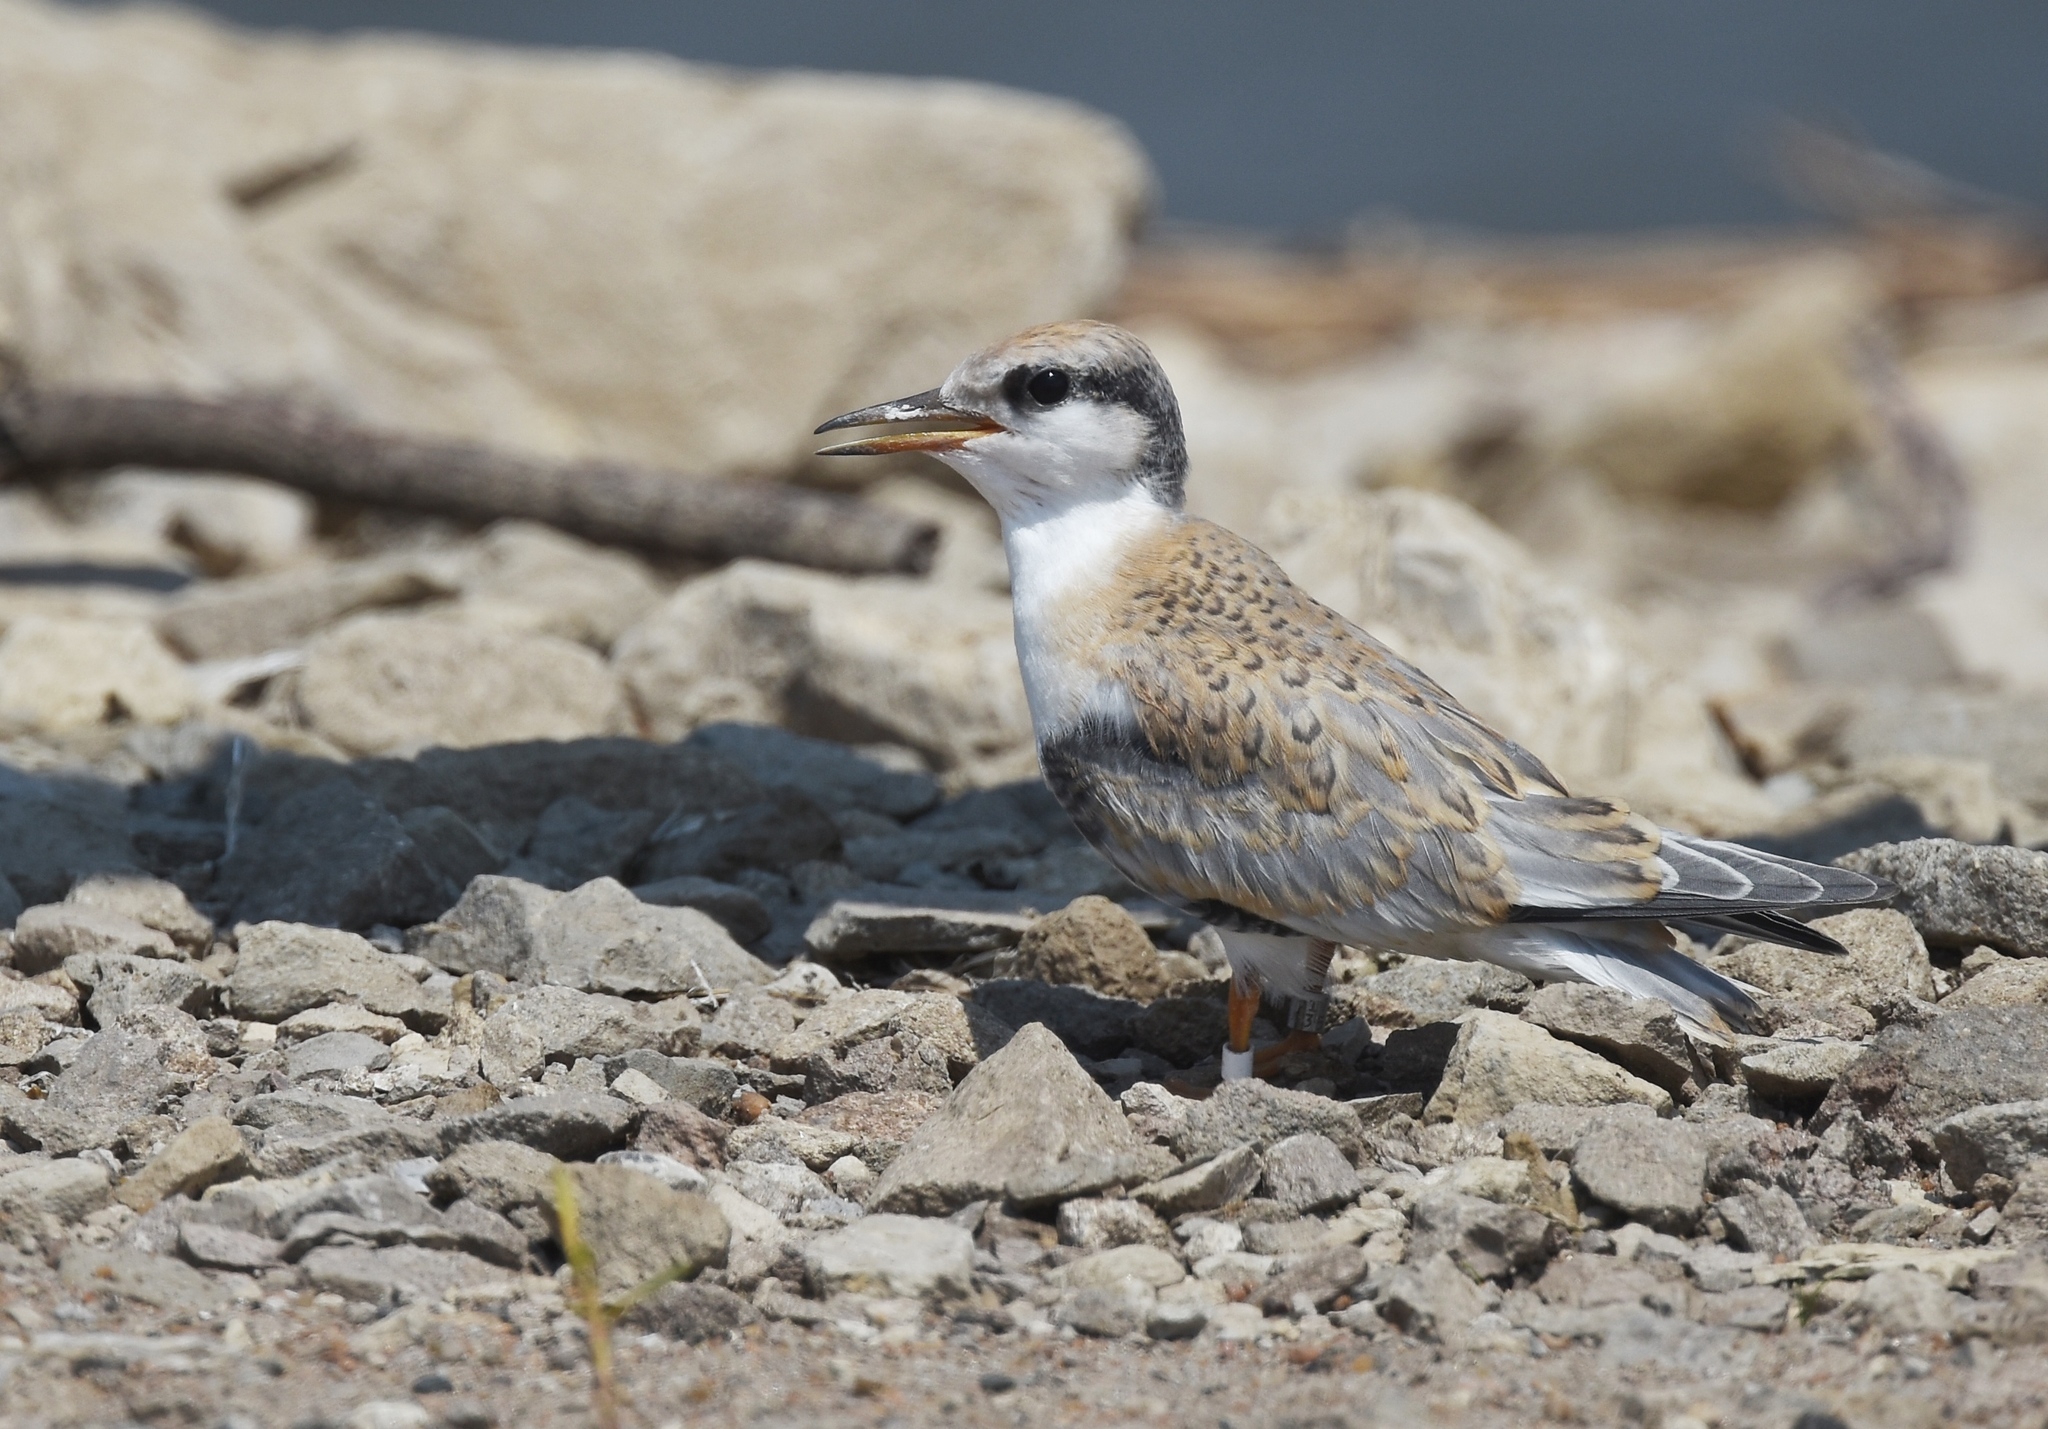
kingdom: Animalia
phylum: Chordata
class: Aves
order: Charadriiformes
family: Laridae
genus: Sternula
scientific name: Sternula antillarum
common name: Least tern
